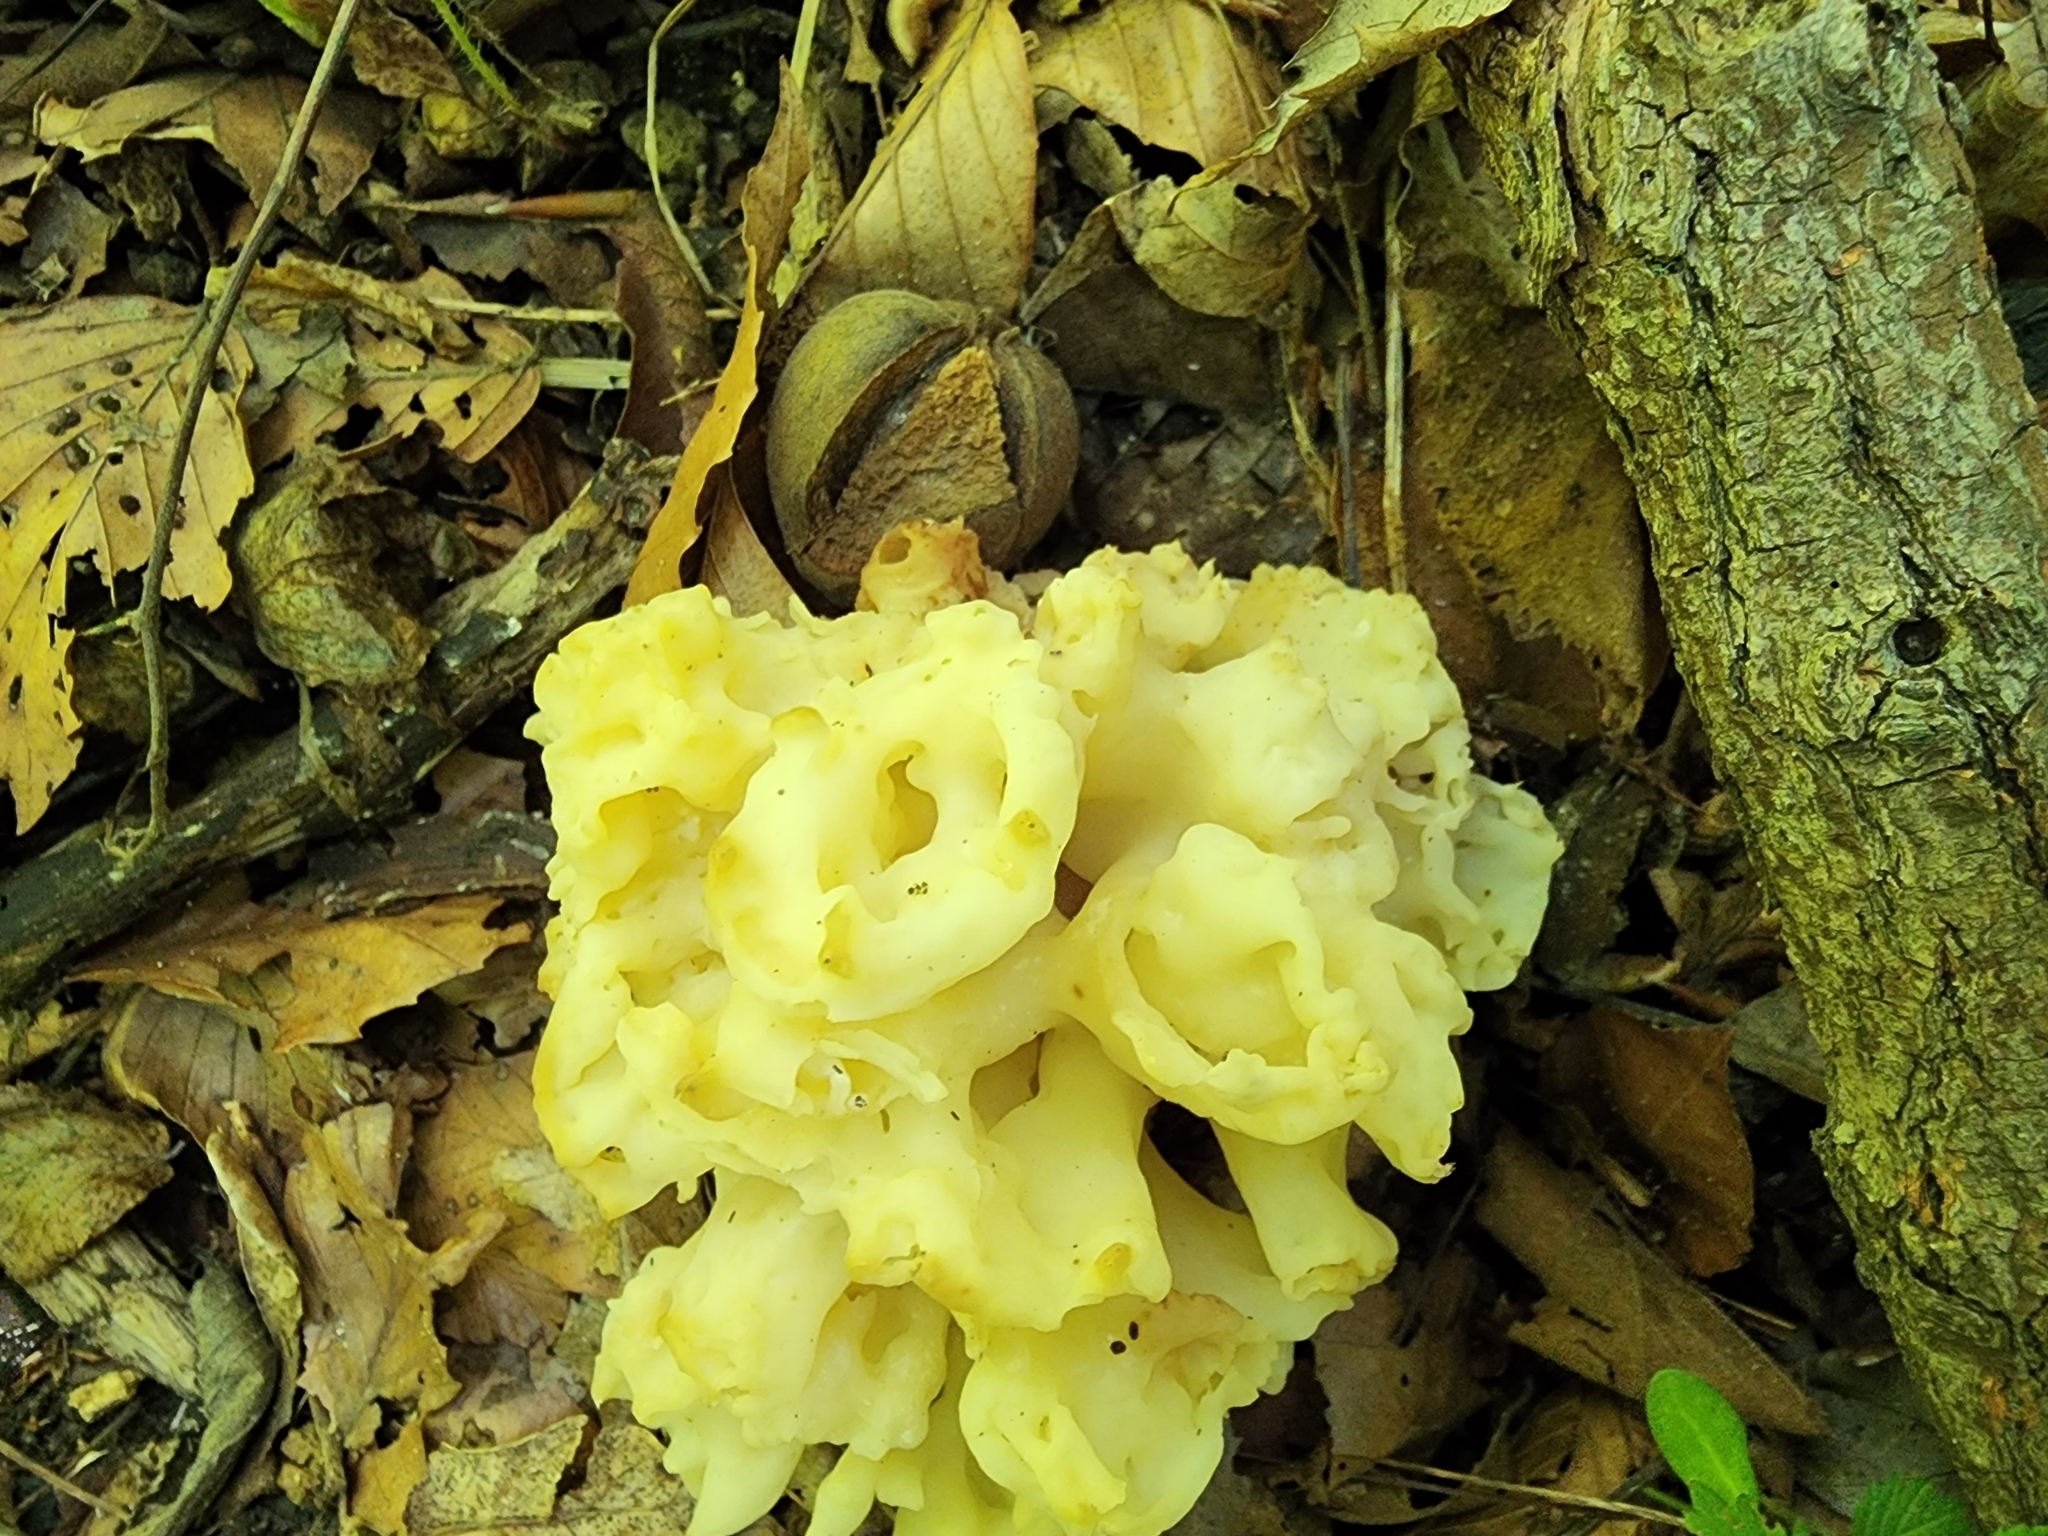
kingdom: Fungi
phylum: Basidiomycota
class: Agaricomycetes
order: Sebacinales
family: Sebacinaceae
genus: Sebacina
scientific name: Sebacina sparassoidea
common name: White coral jelly fungus
